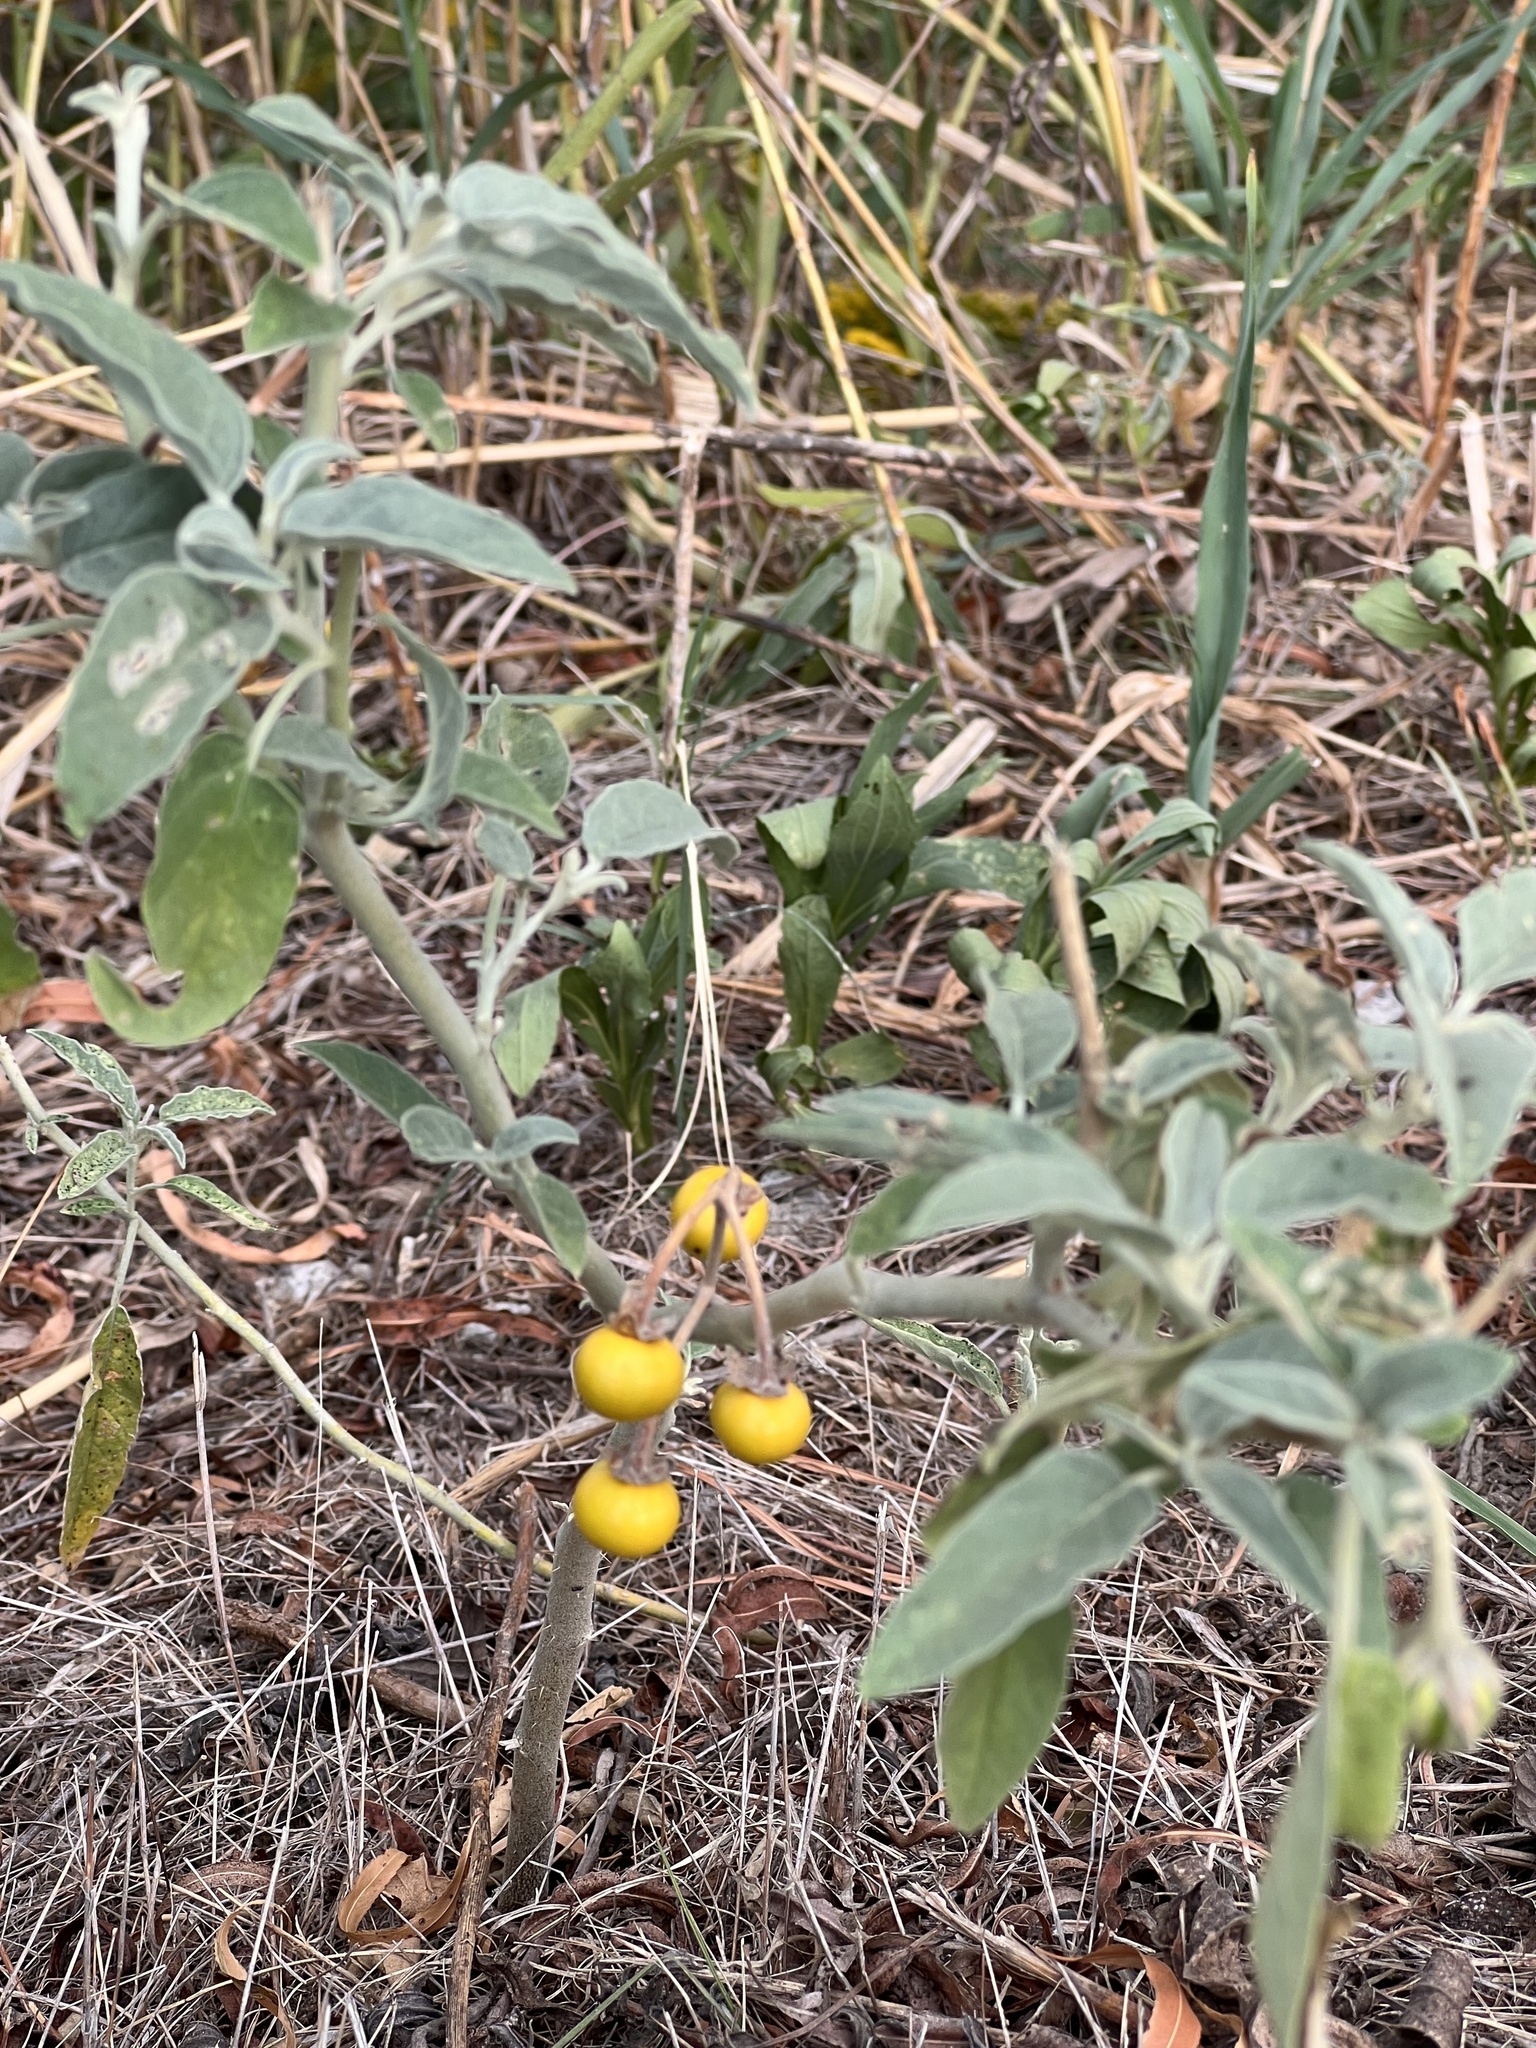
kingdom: Plantae
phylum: Tracheophyta
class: Magnoliopsida
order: Solanales
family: Solanaceae
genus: Solanum
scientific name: Solanum elaeagnifolium
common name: Silverleaf nightshade
